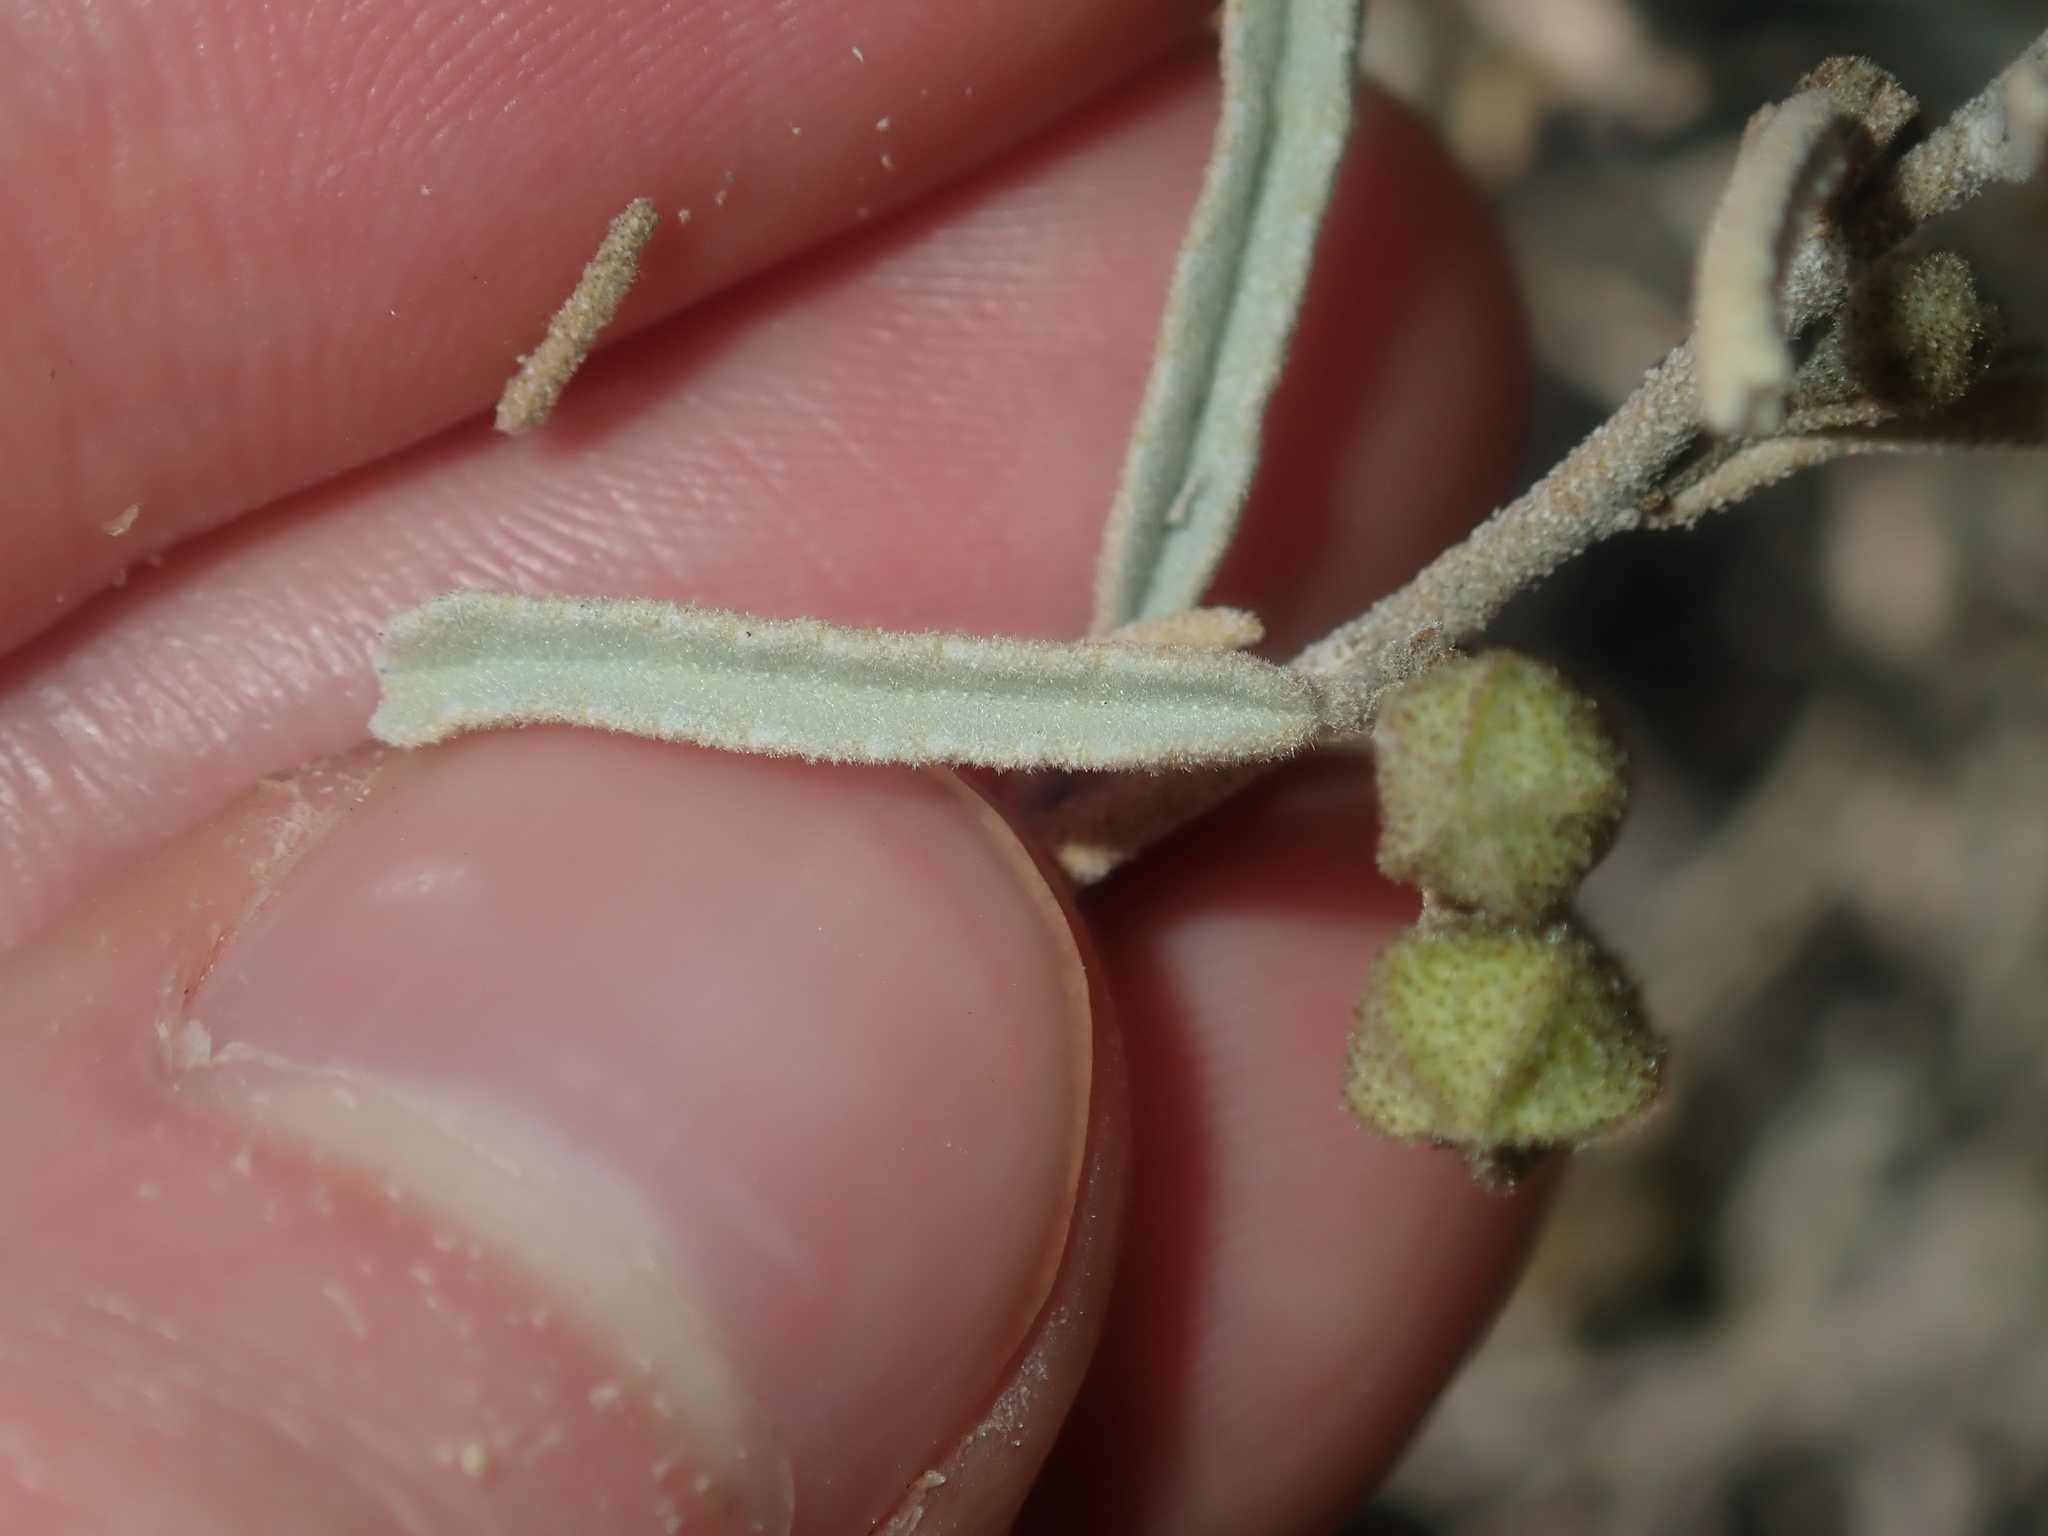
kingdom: Plantae
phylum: Tracheophyta
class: Magnoliopsida
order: Malvales
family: Malvaceae
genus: Sida
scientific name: Sida calyxhymenia
